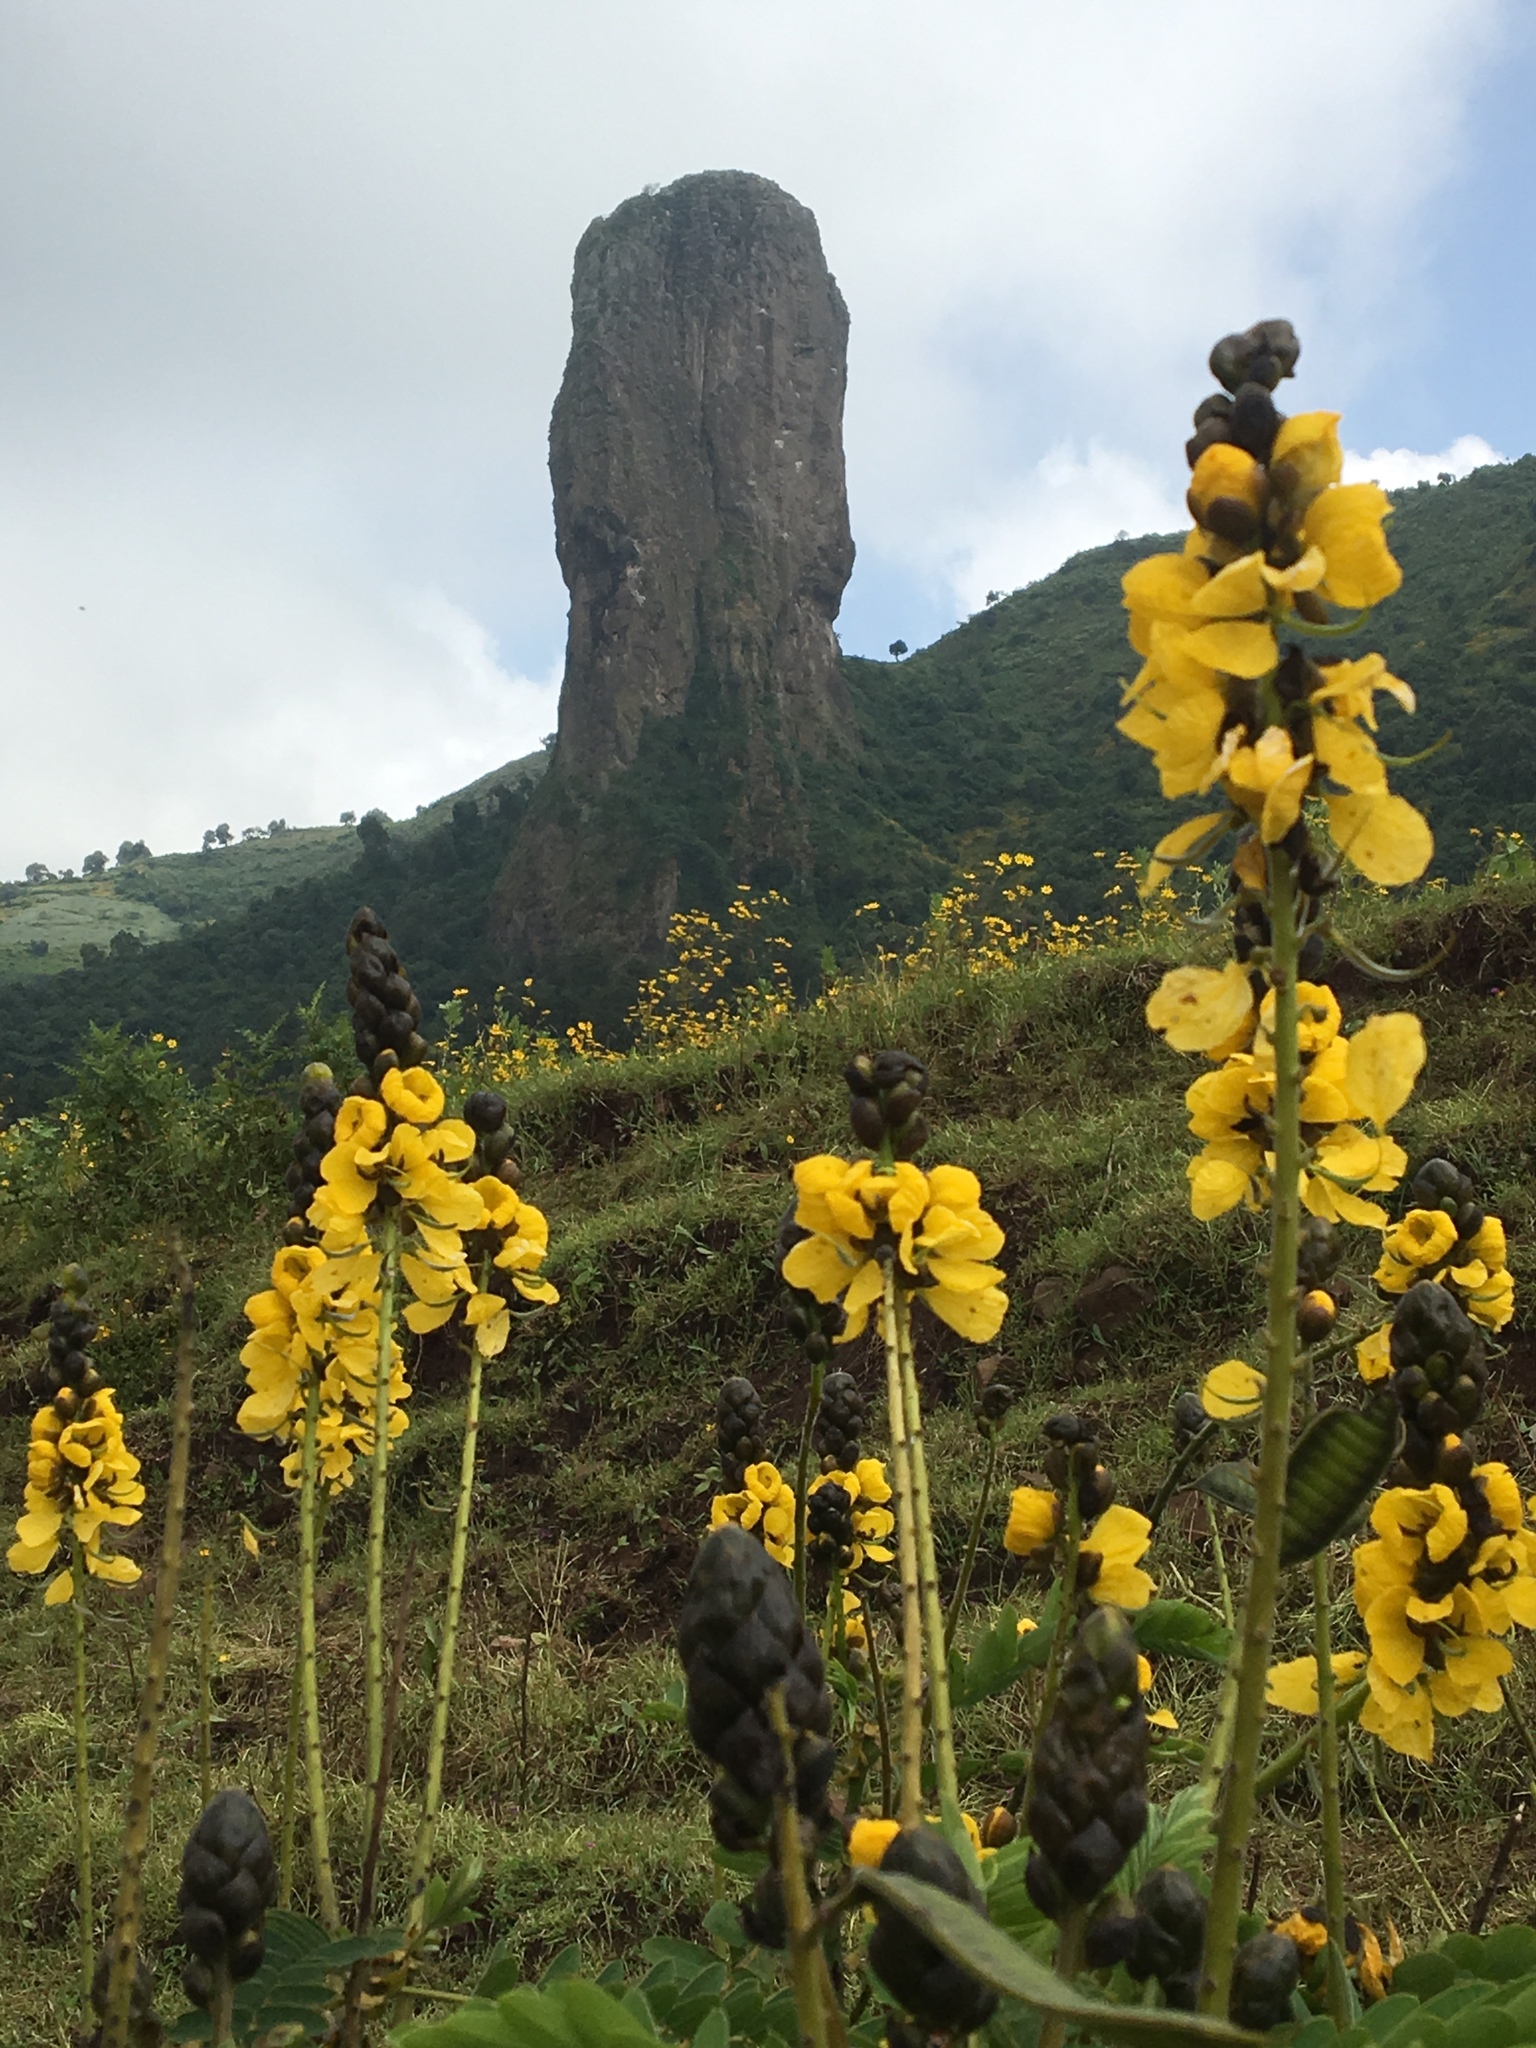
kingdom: Plantae
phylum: Tracheophyta
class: Magnoliopsida
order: Fabales
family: Fabaceae
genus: Senna
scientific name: Senna didymobotrya
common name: African senna
